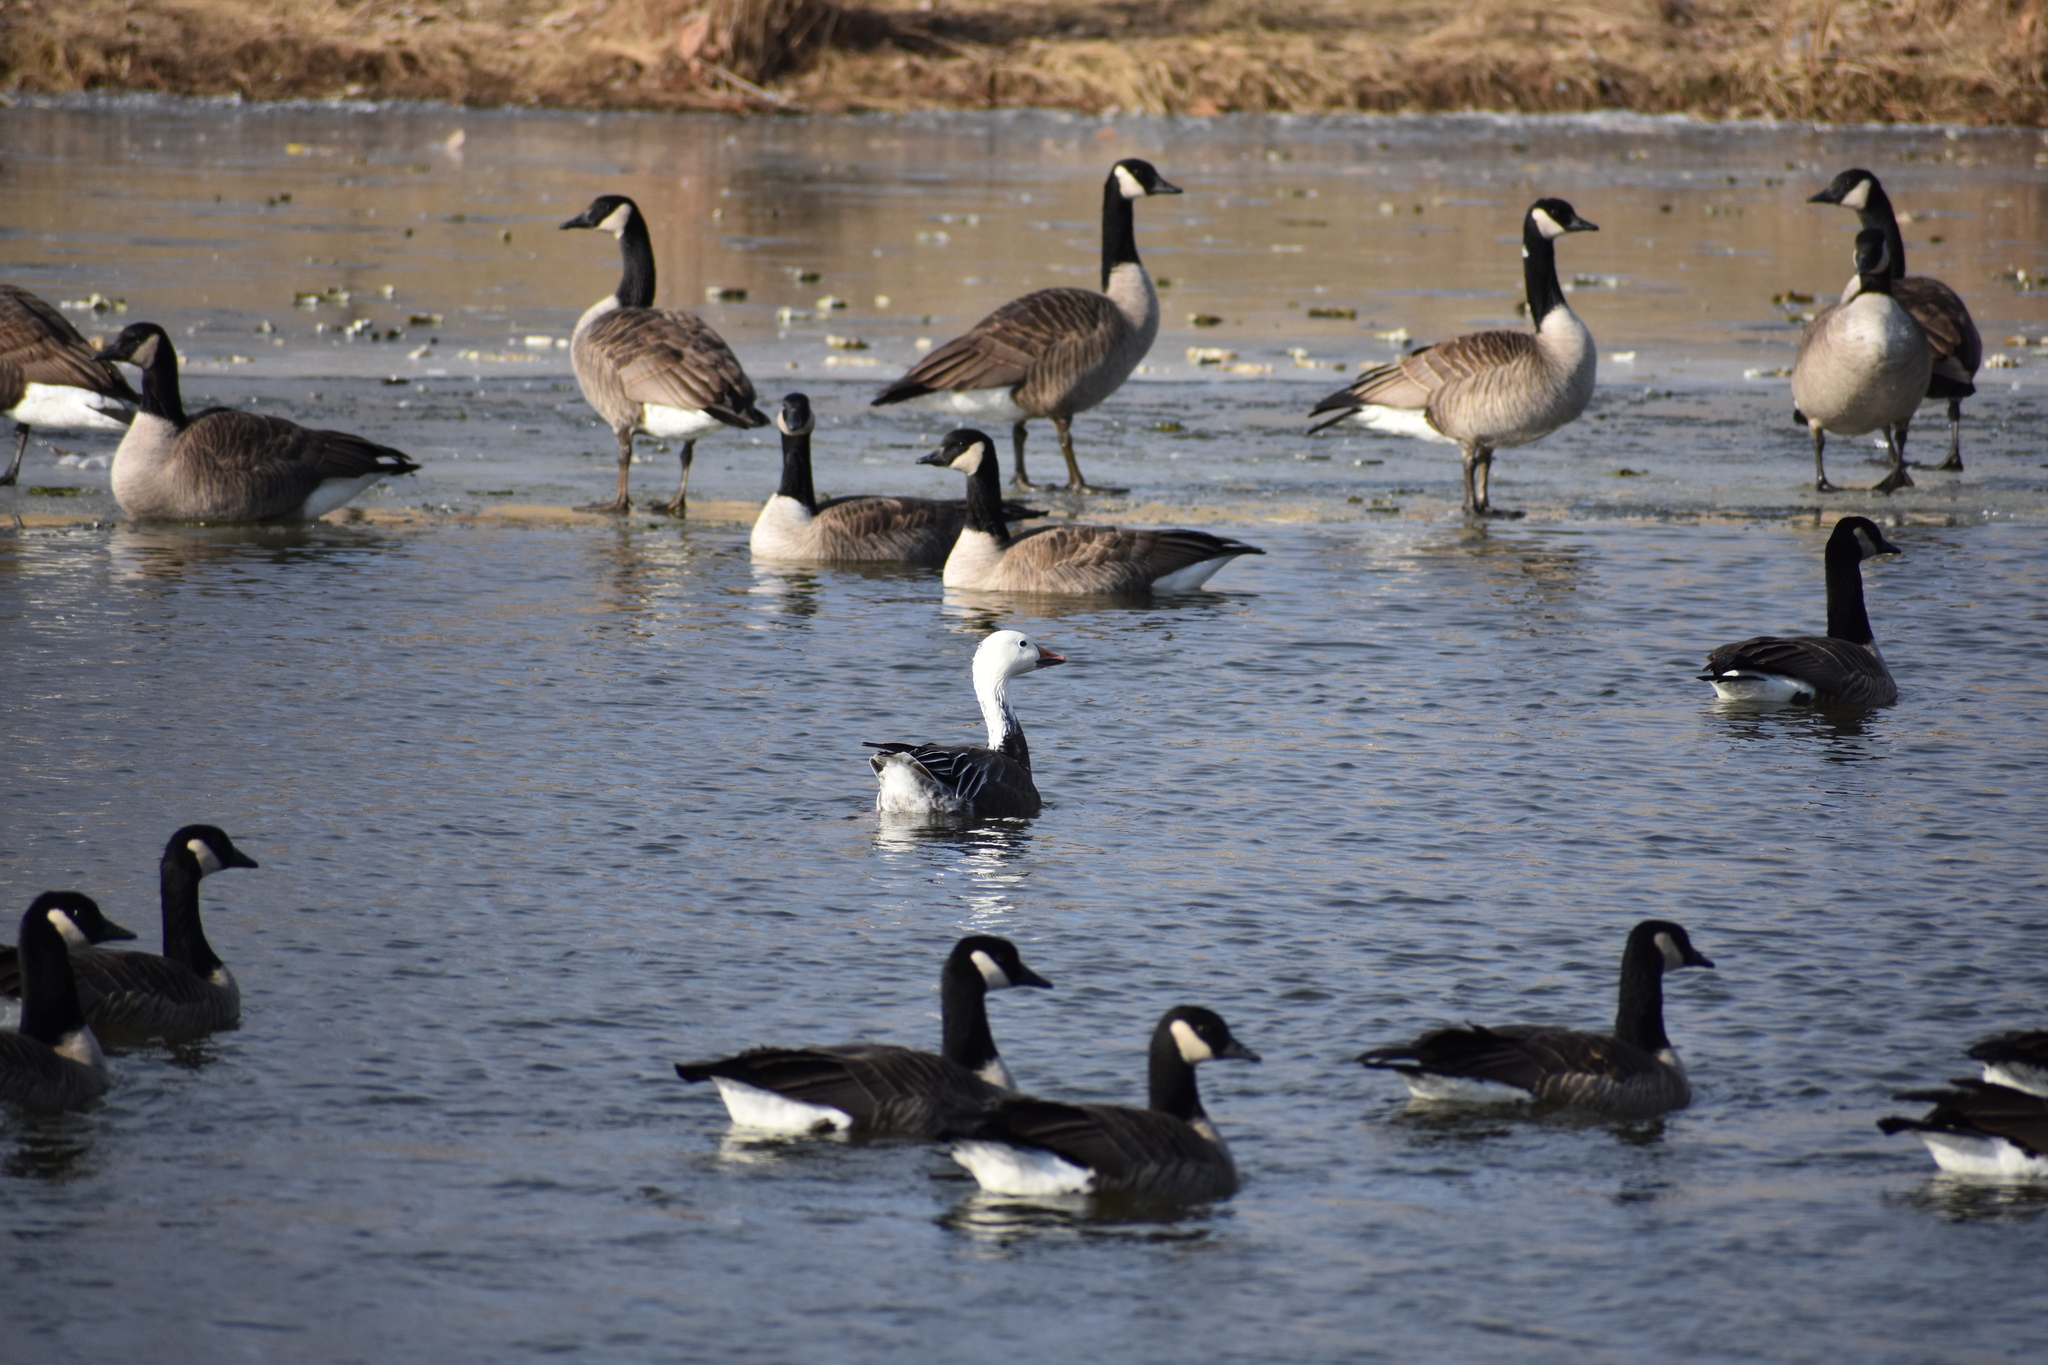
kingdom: Animalia
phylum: Chordata
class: Aves
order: Anseriformes
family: Anatidae
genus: Anser
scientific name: Anser caerulescens
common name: Snow goose
